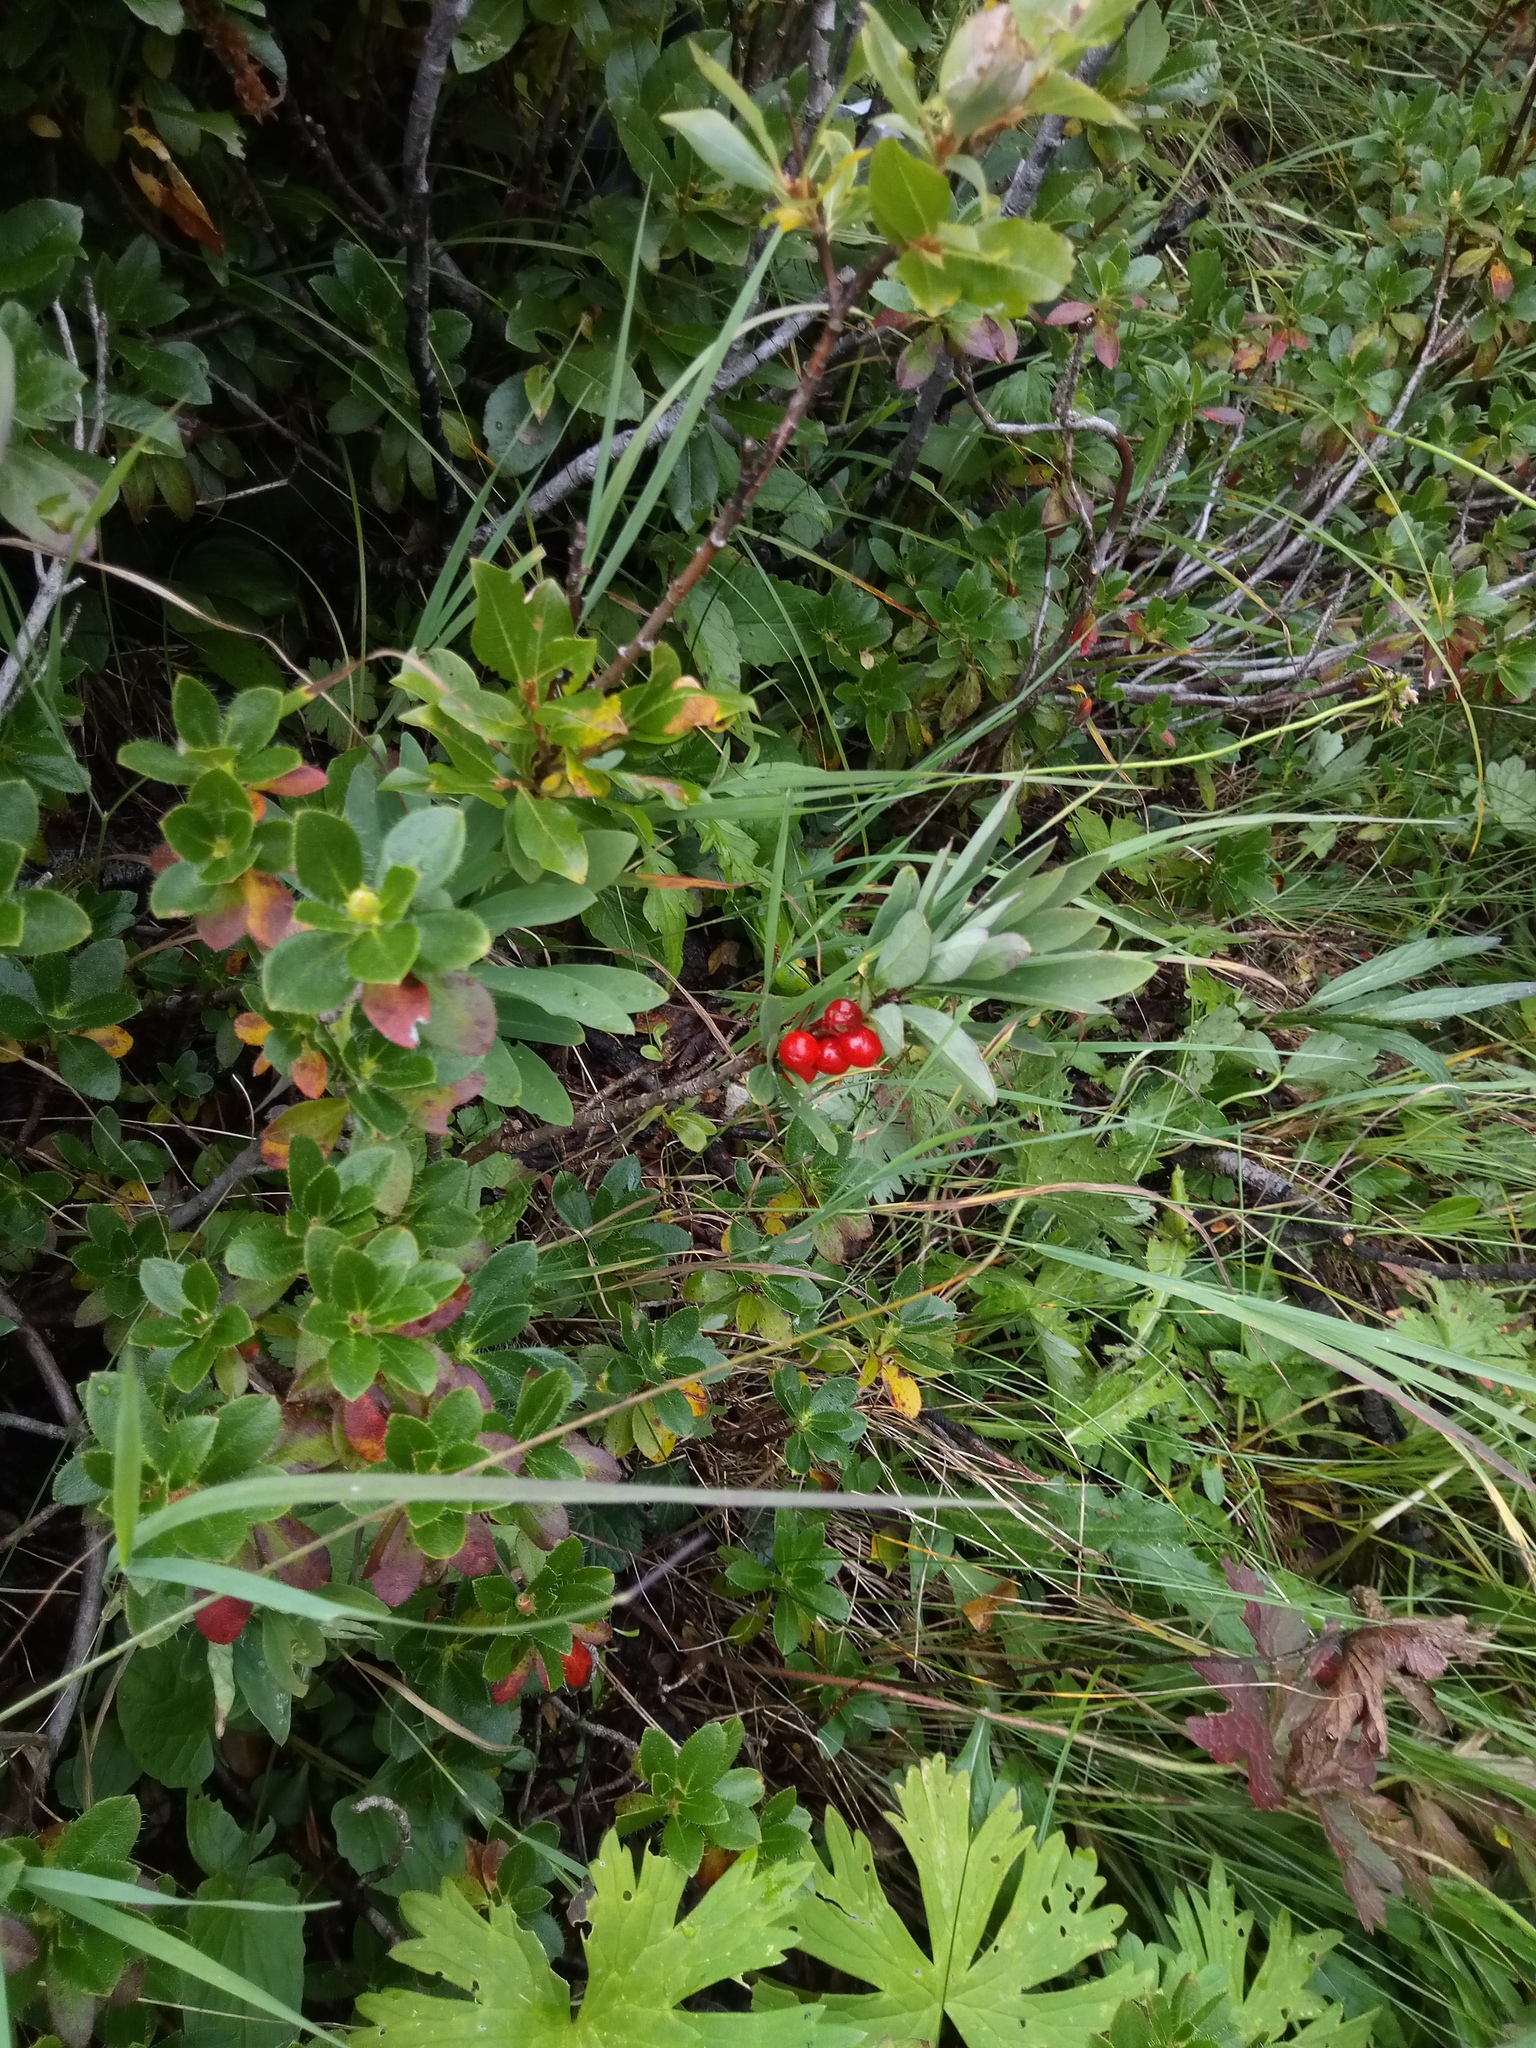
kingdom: Plantae
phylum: Tracheophyta
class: Magnoliopsida
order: Malvales
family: Thymelaeaceae
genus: Daphne
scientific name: Daphne mezereum
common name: Mezereon
